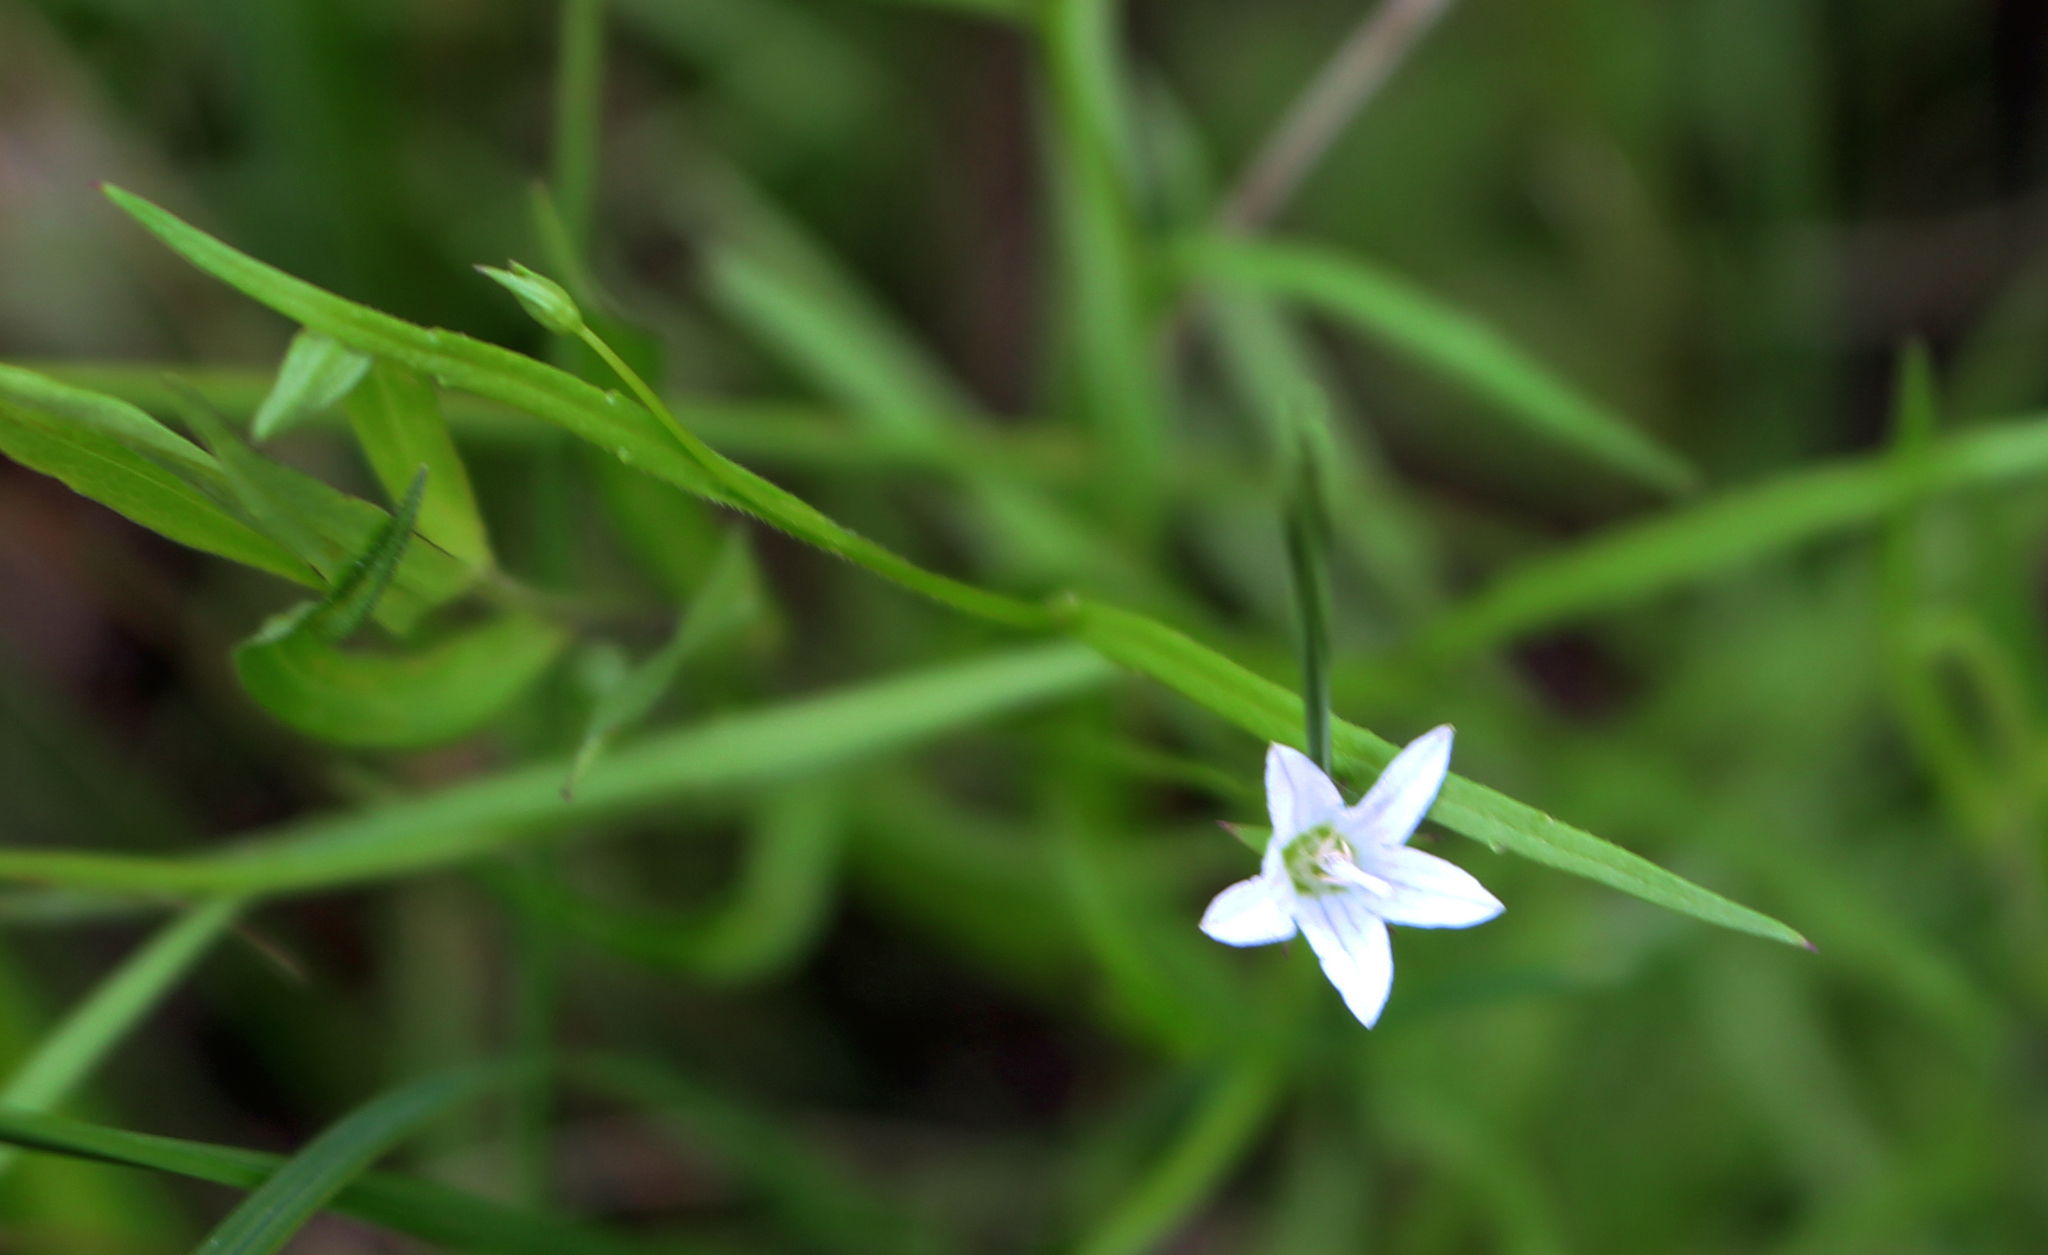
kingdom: Plantae
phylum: Tracheophyta
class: Magnoliopsida
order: Asterales
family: Campanulaceae
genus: Palustricodon
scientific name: Palustricodon aparinoides
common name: Bedstraw bellflower
